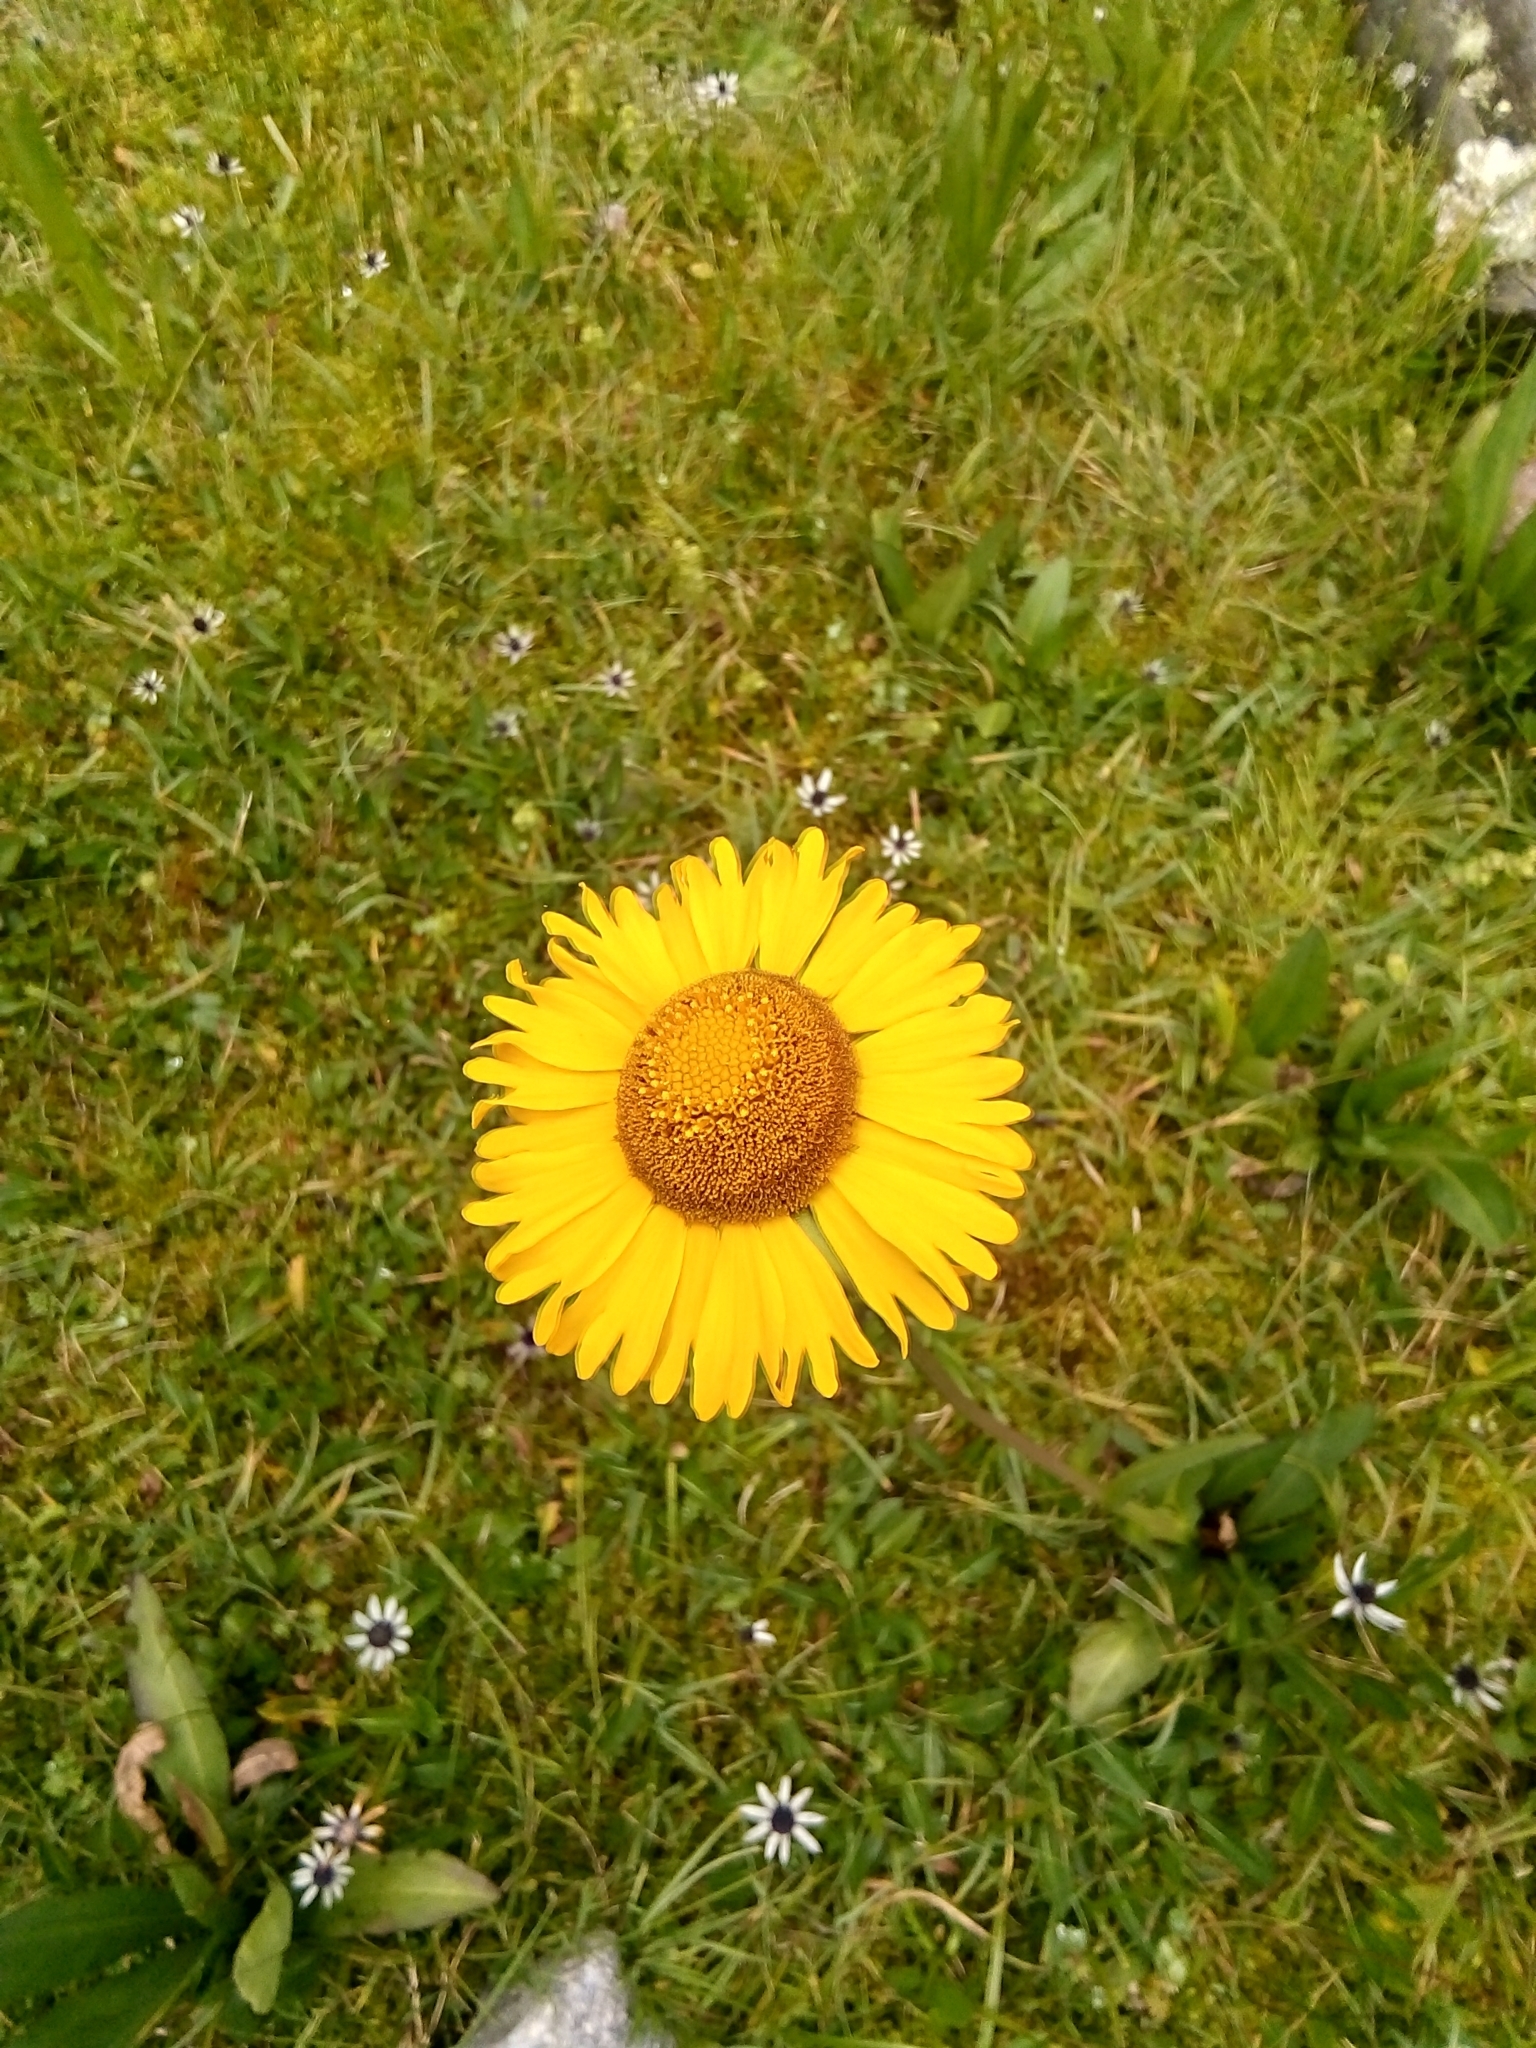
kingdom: Plantae
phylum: Tracheophyta
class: Magnoliopsida
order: Asterales
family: Asteraceae
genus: Helenium
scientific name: Helenium scorzonerifolium
